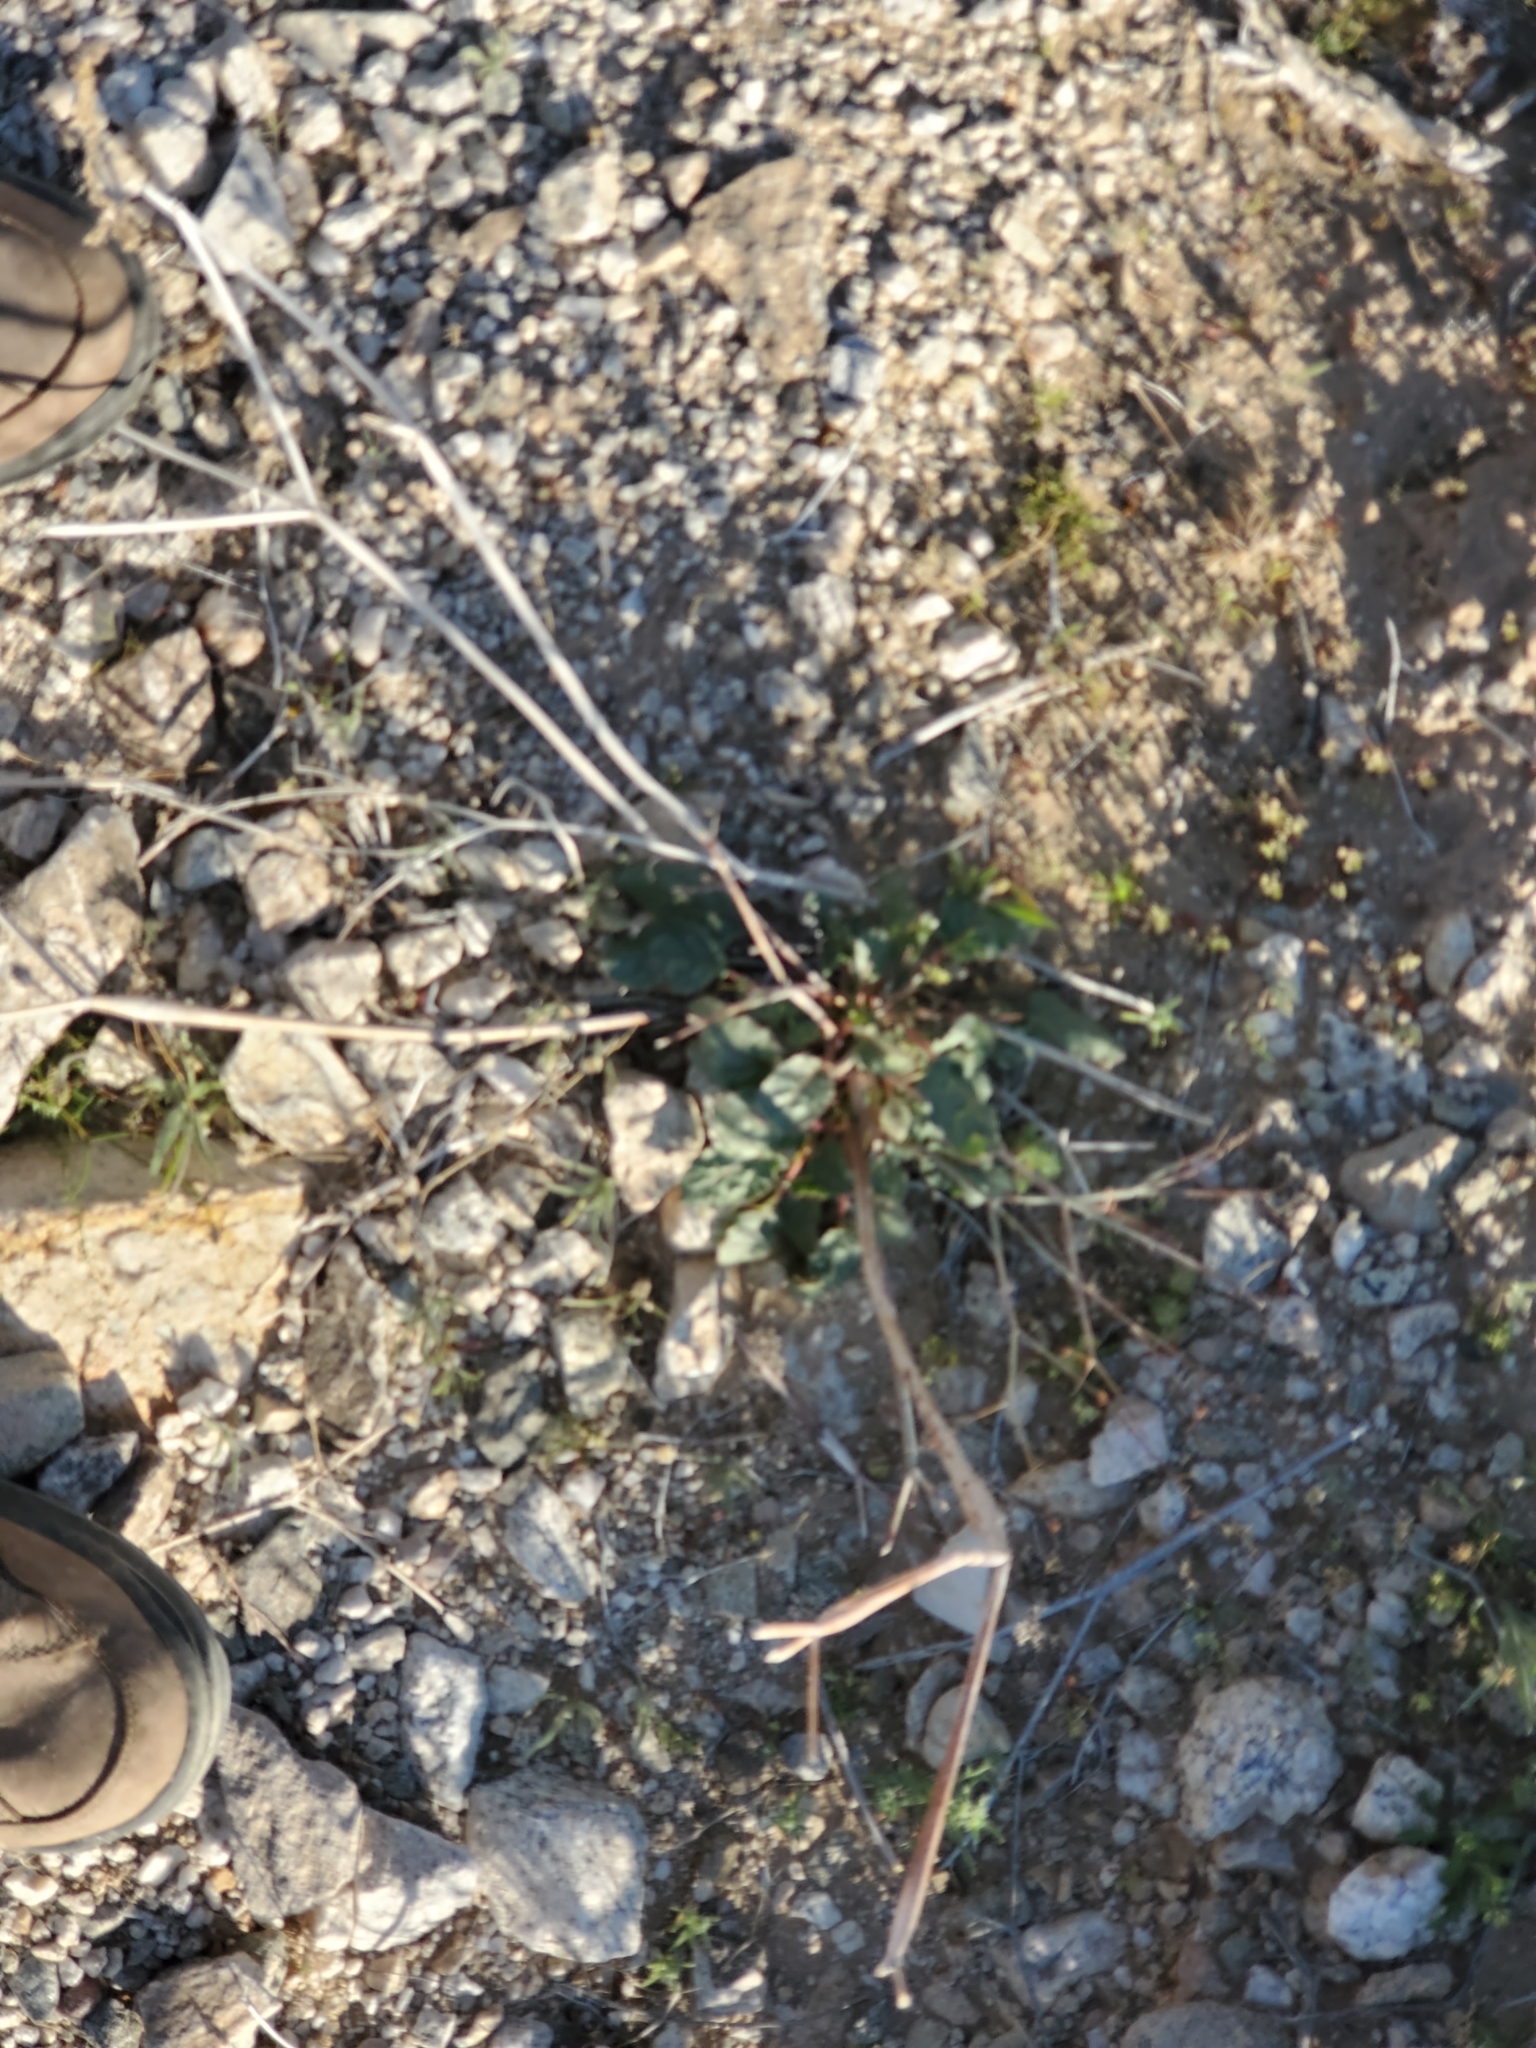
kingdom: Plantae
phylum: Tracheophyta
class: Magnoliopsida
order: Caryophyllales
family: Polygonaceae
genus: Eriogonum
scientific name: Eriogonum inflatum
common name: Desert trumpet
